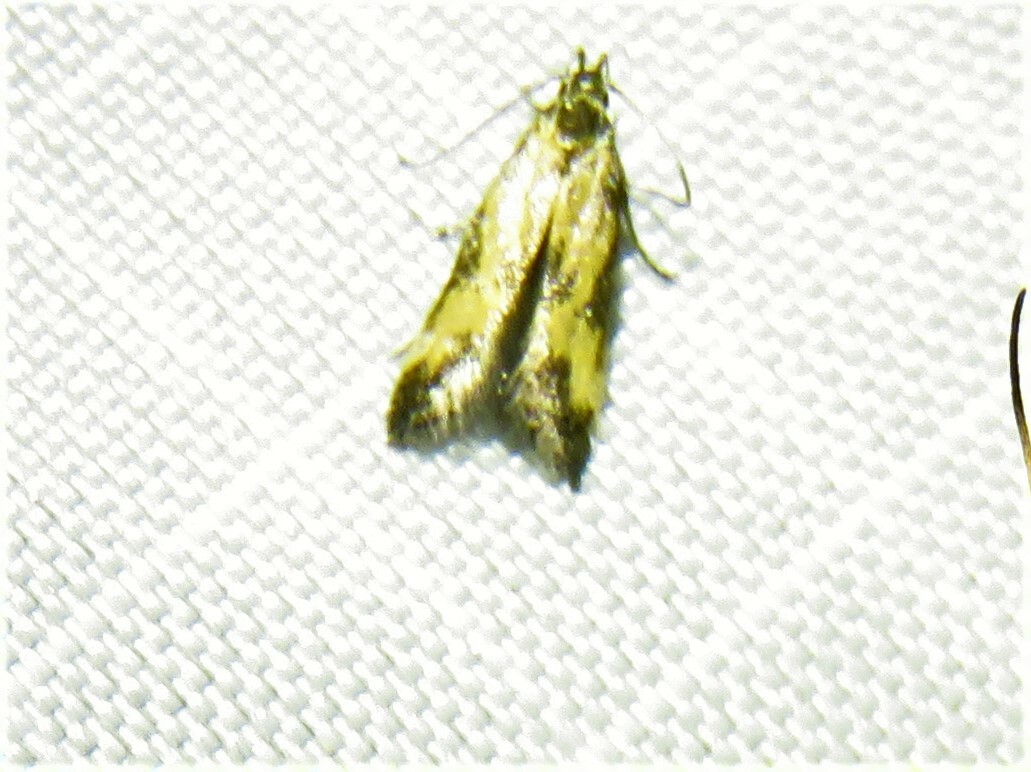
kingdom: Animalia
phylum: Arthropoda
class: Insecta
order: Lepidoptera
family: Momphidae
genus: Triclonella
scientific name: Triclonella bicoloripennis
